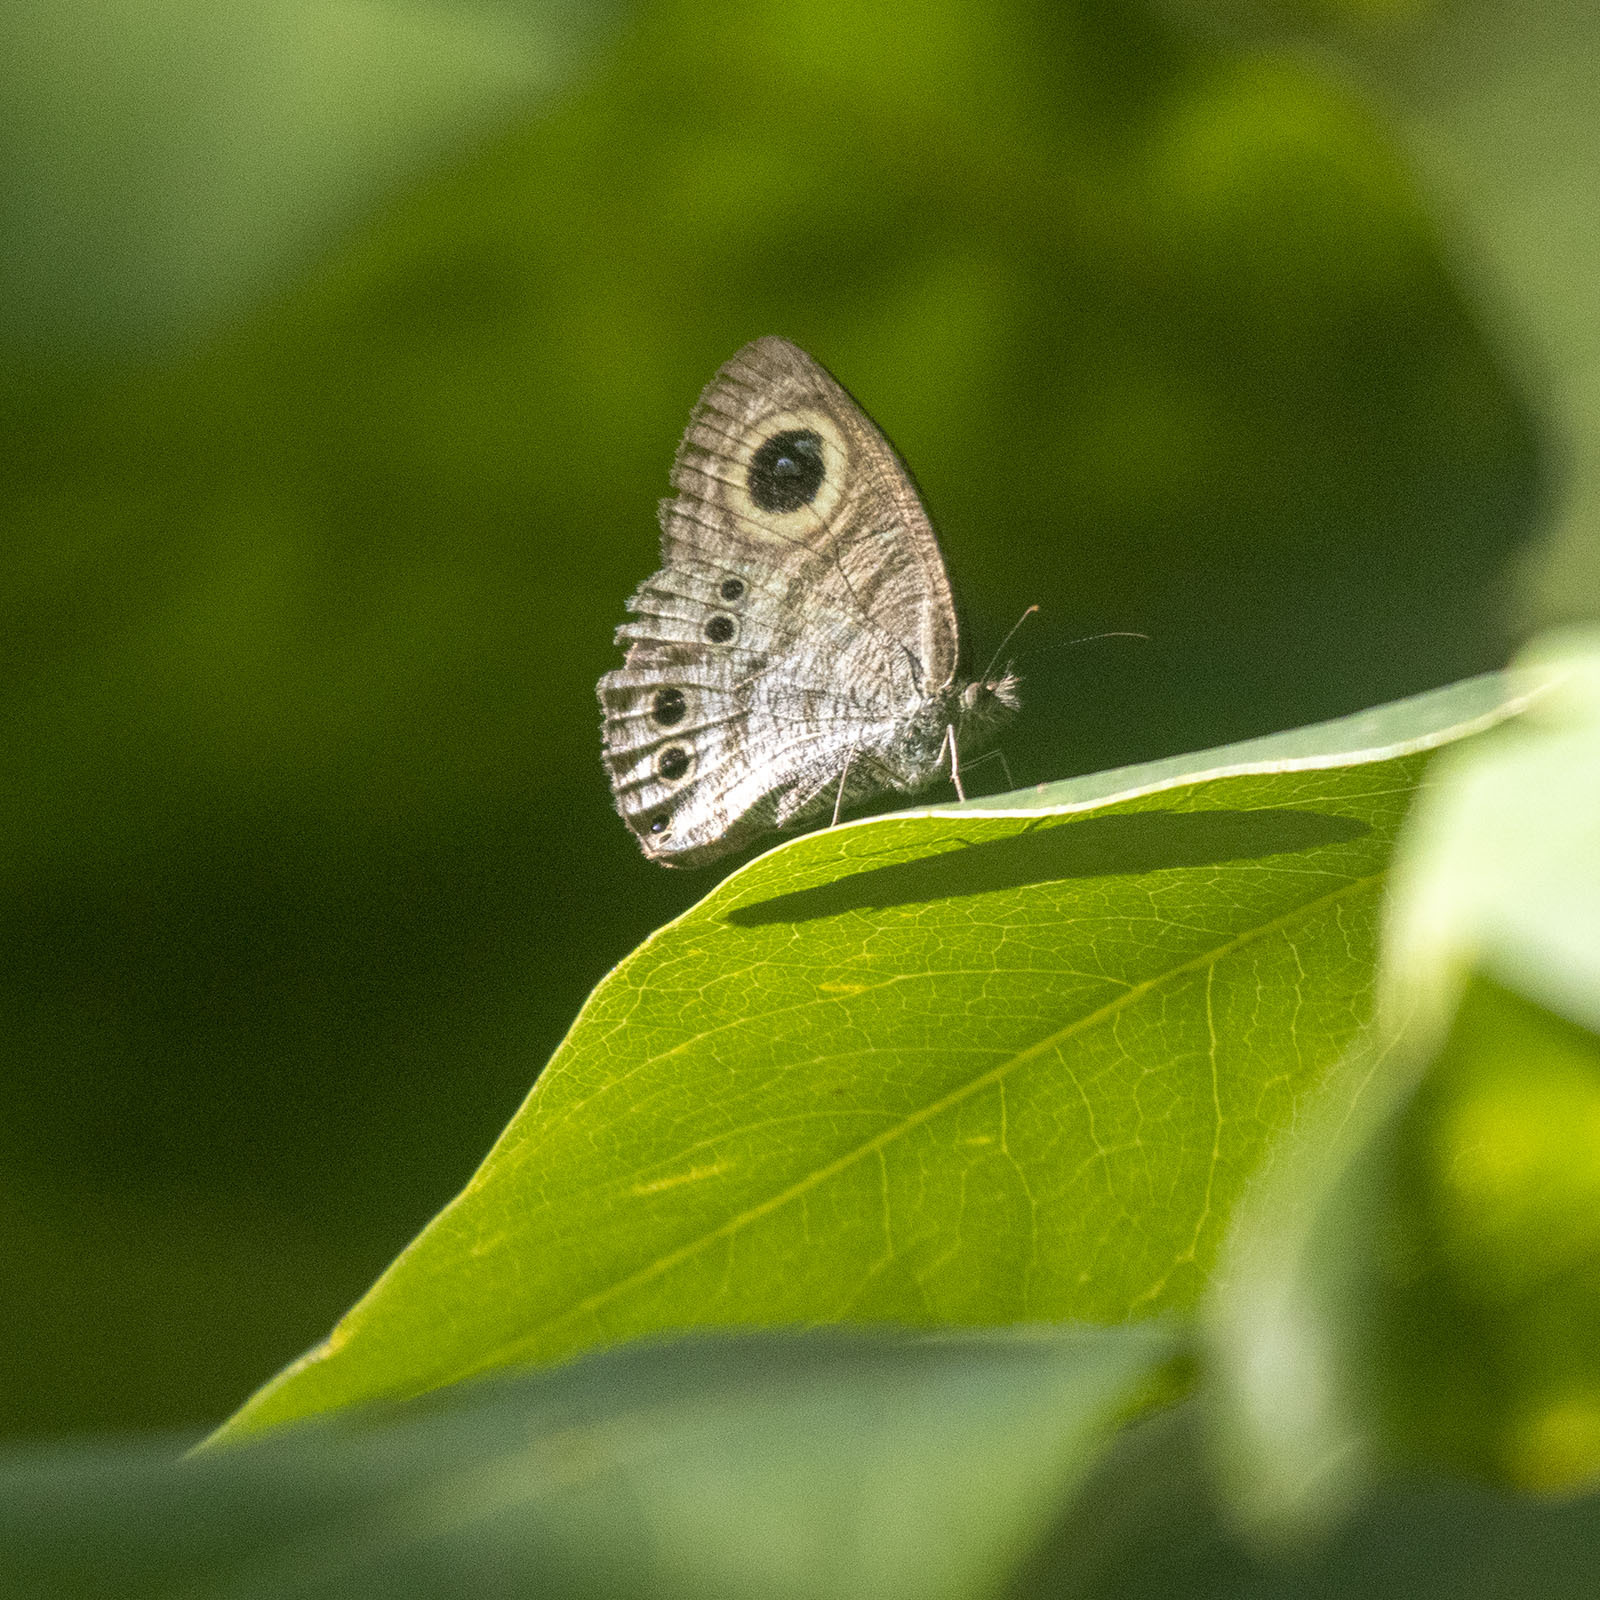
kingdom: Animalia
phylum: Arthropoda
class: Insecta
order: Lepidoptera
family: Nymphalidae
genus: Ypthima
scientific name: Ypthima baldus
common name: Common five-ring
